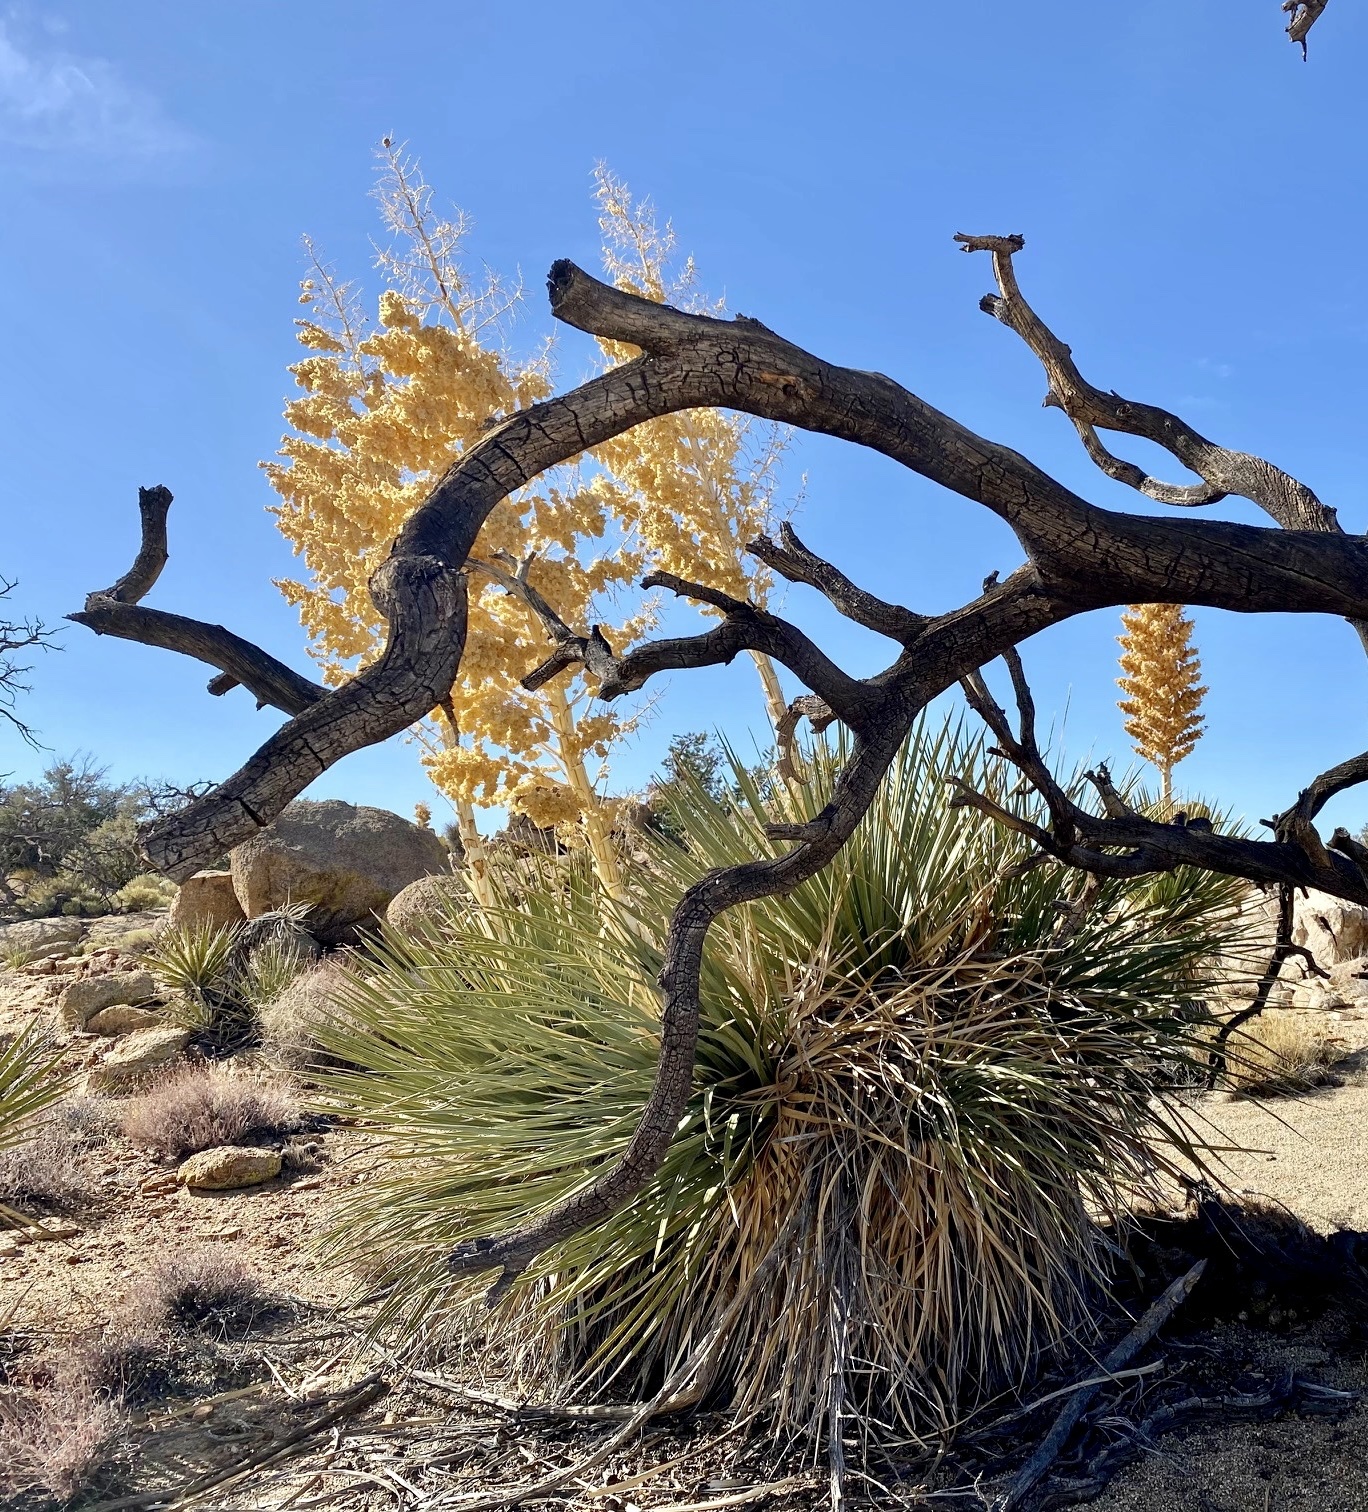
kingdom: Plantae
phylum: Tracheophyta
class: Liliopsida
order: Asparagales
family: Asparagaceae
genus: Nolina
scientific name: Nolina parryi
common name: Parry nolina
